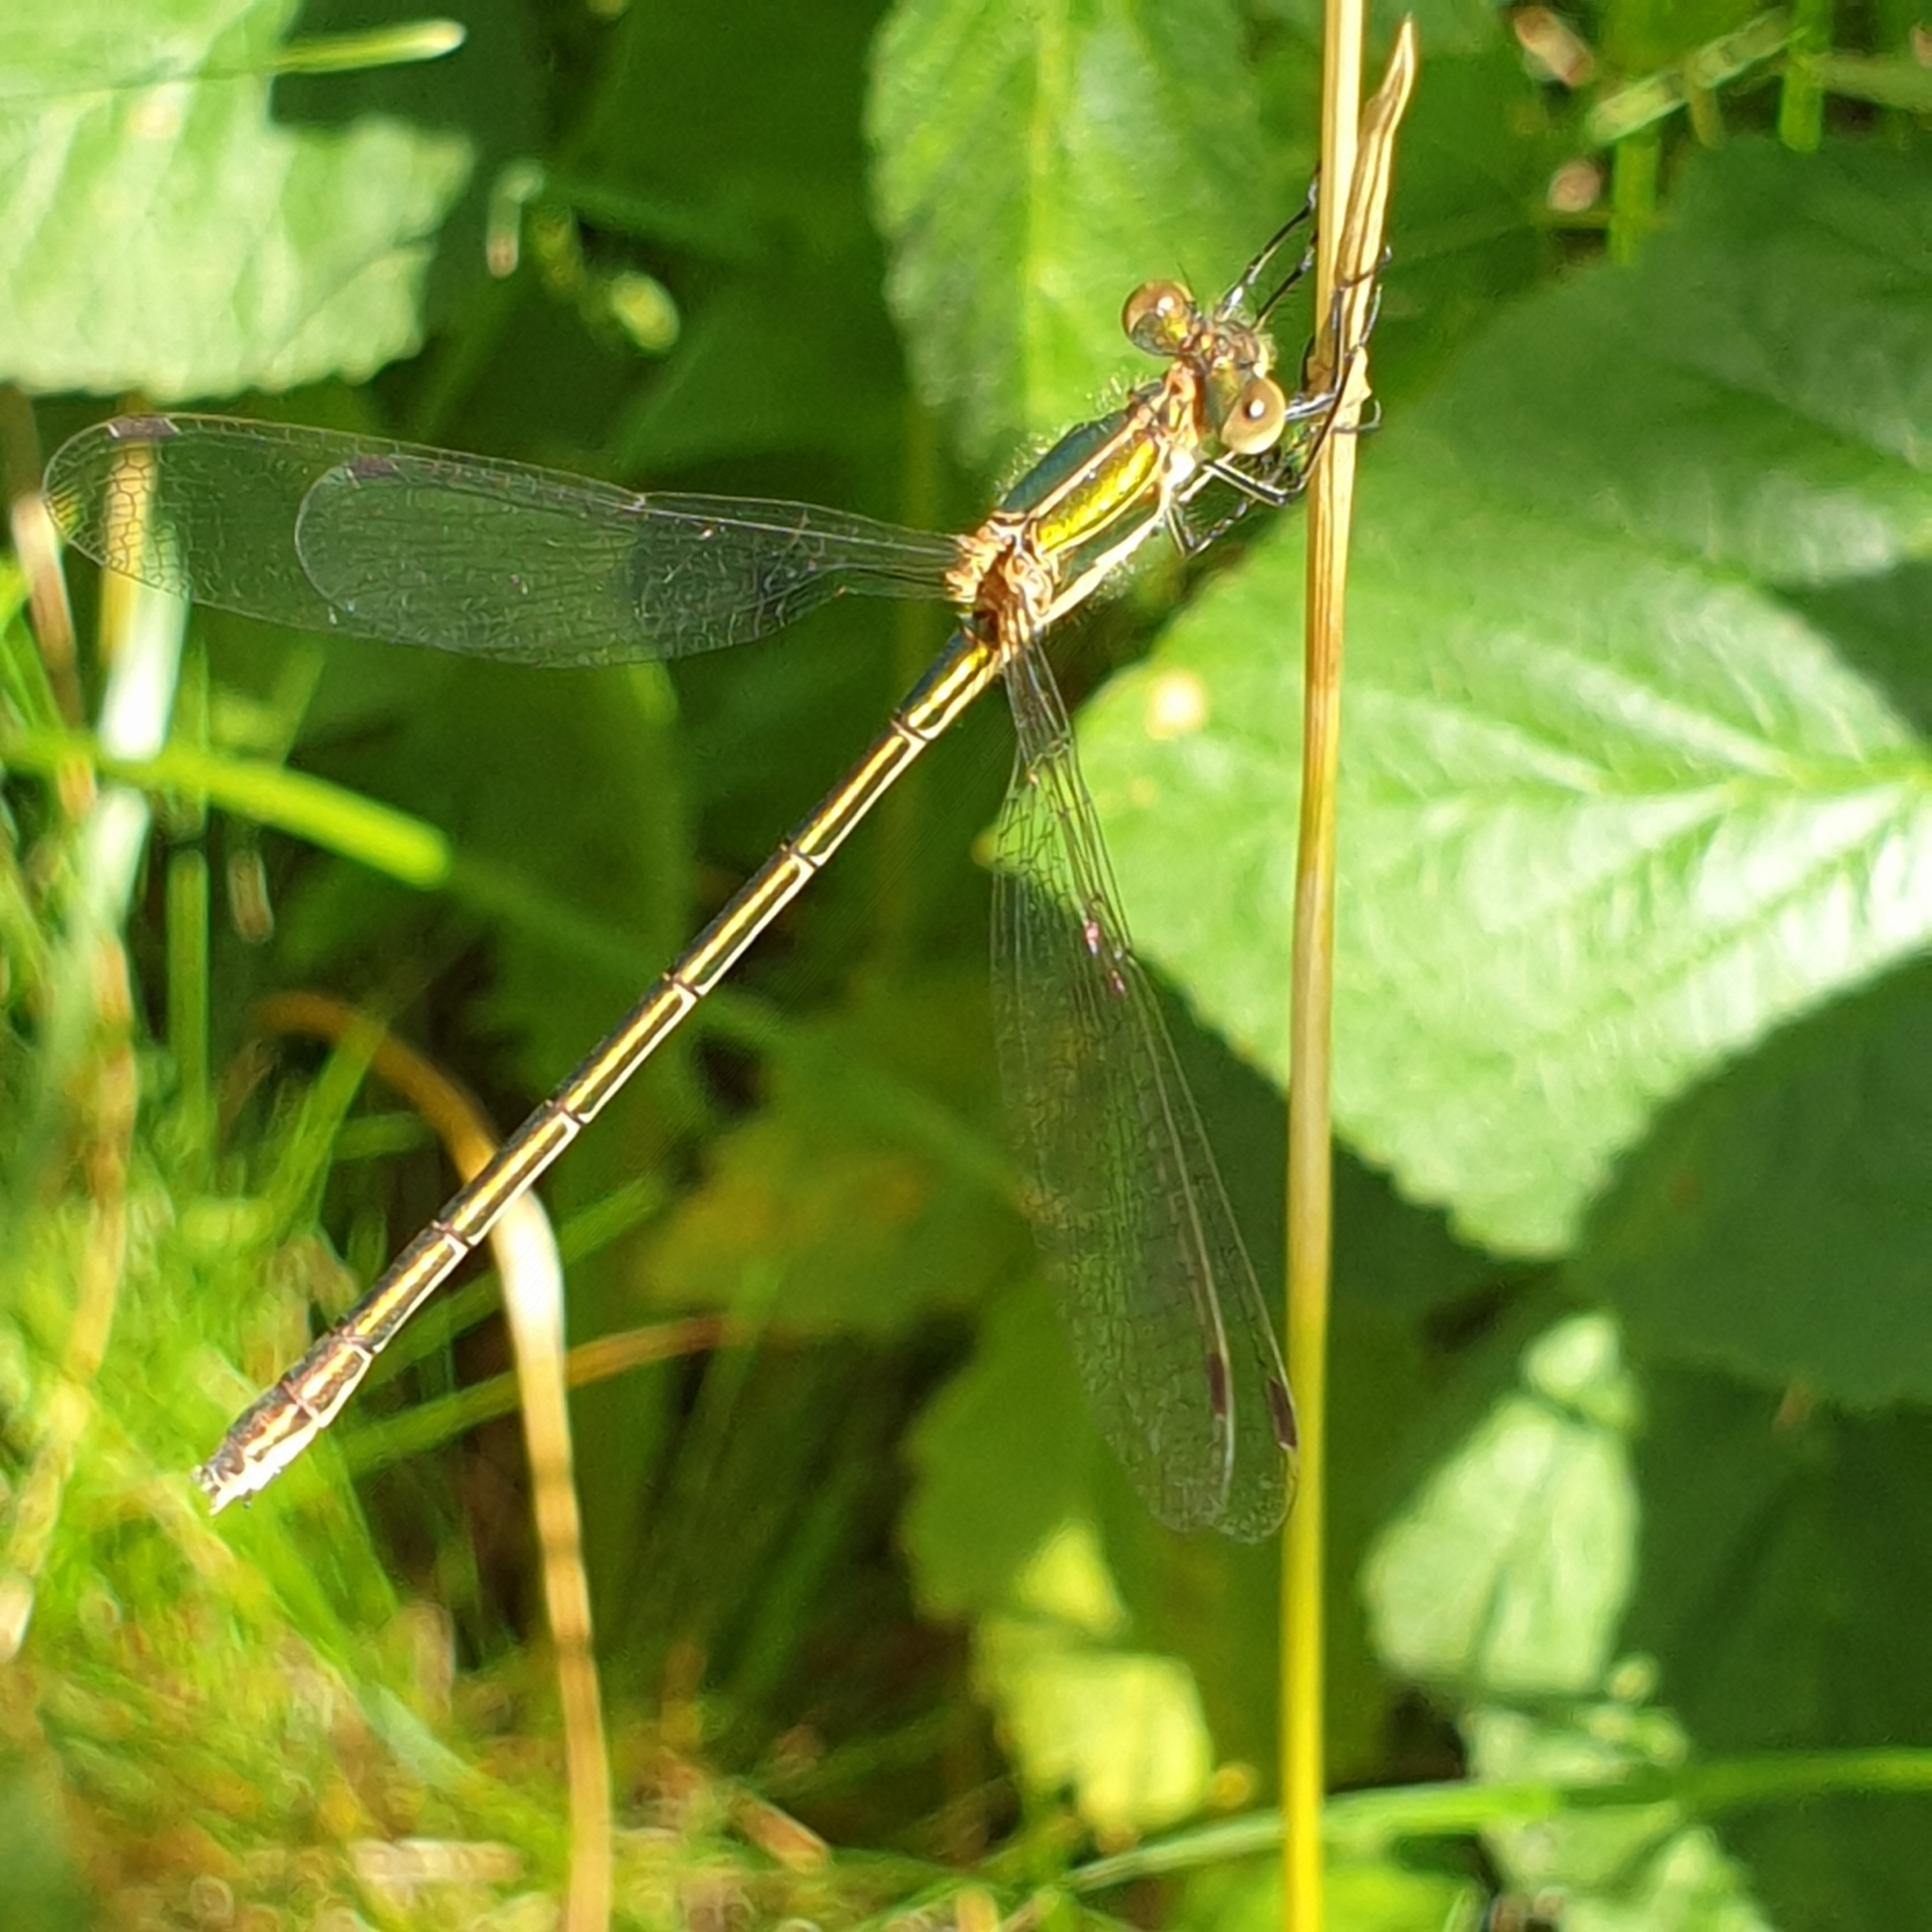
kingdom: Animalia
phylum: Arthropoda
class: Insecta
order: Odonata
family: Lestidae
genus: Lestes
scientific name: Lestes sponsa
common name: Common spreadwing
